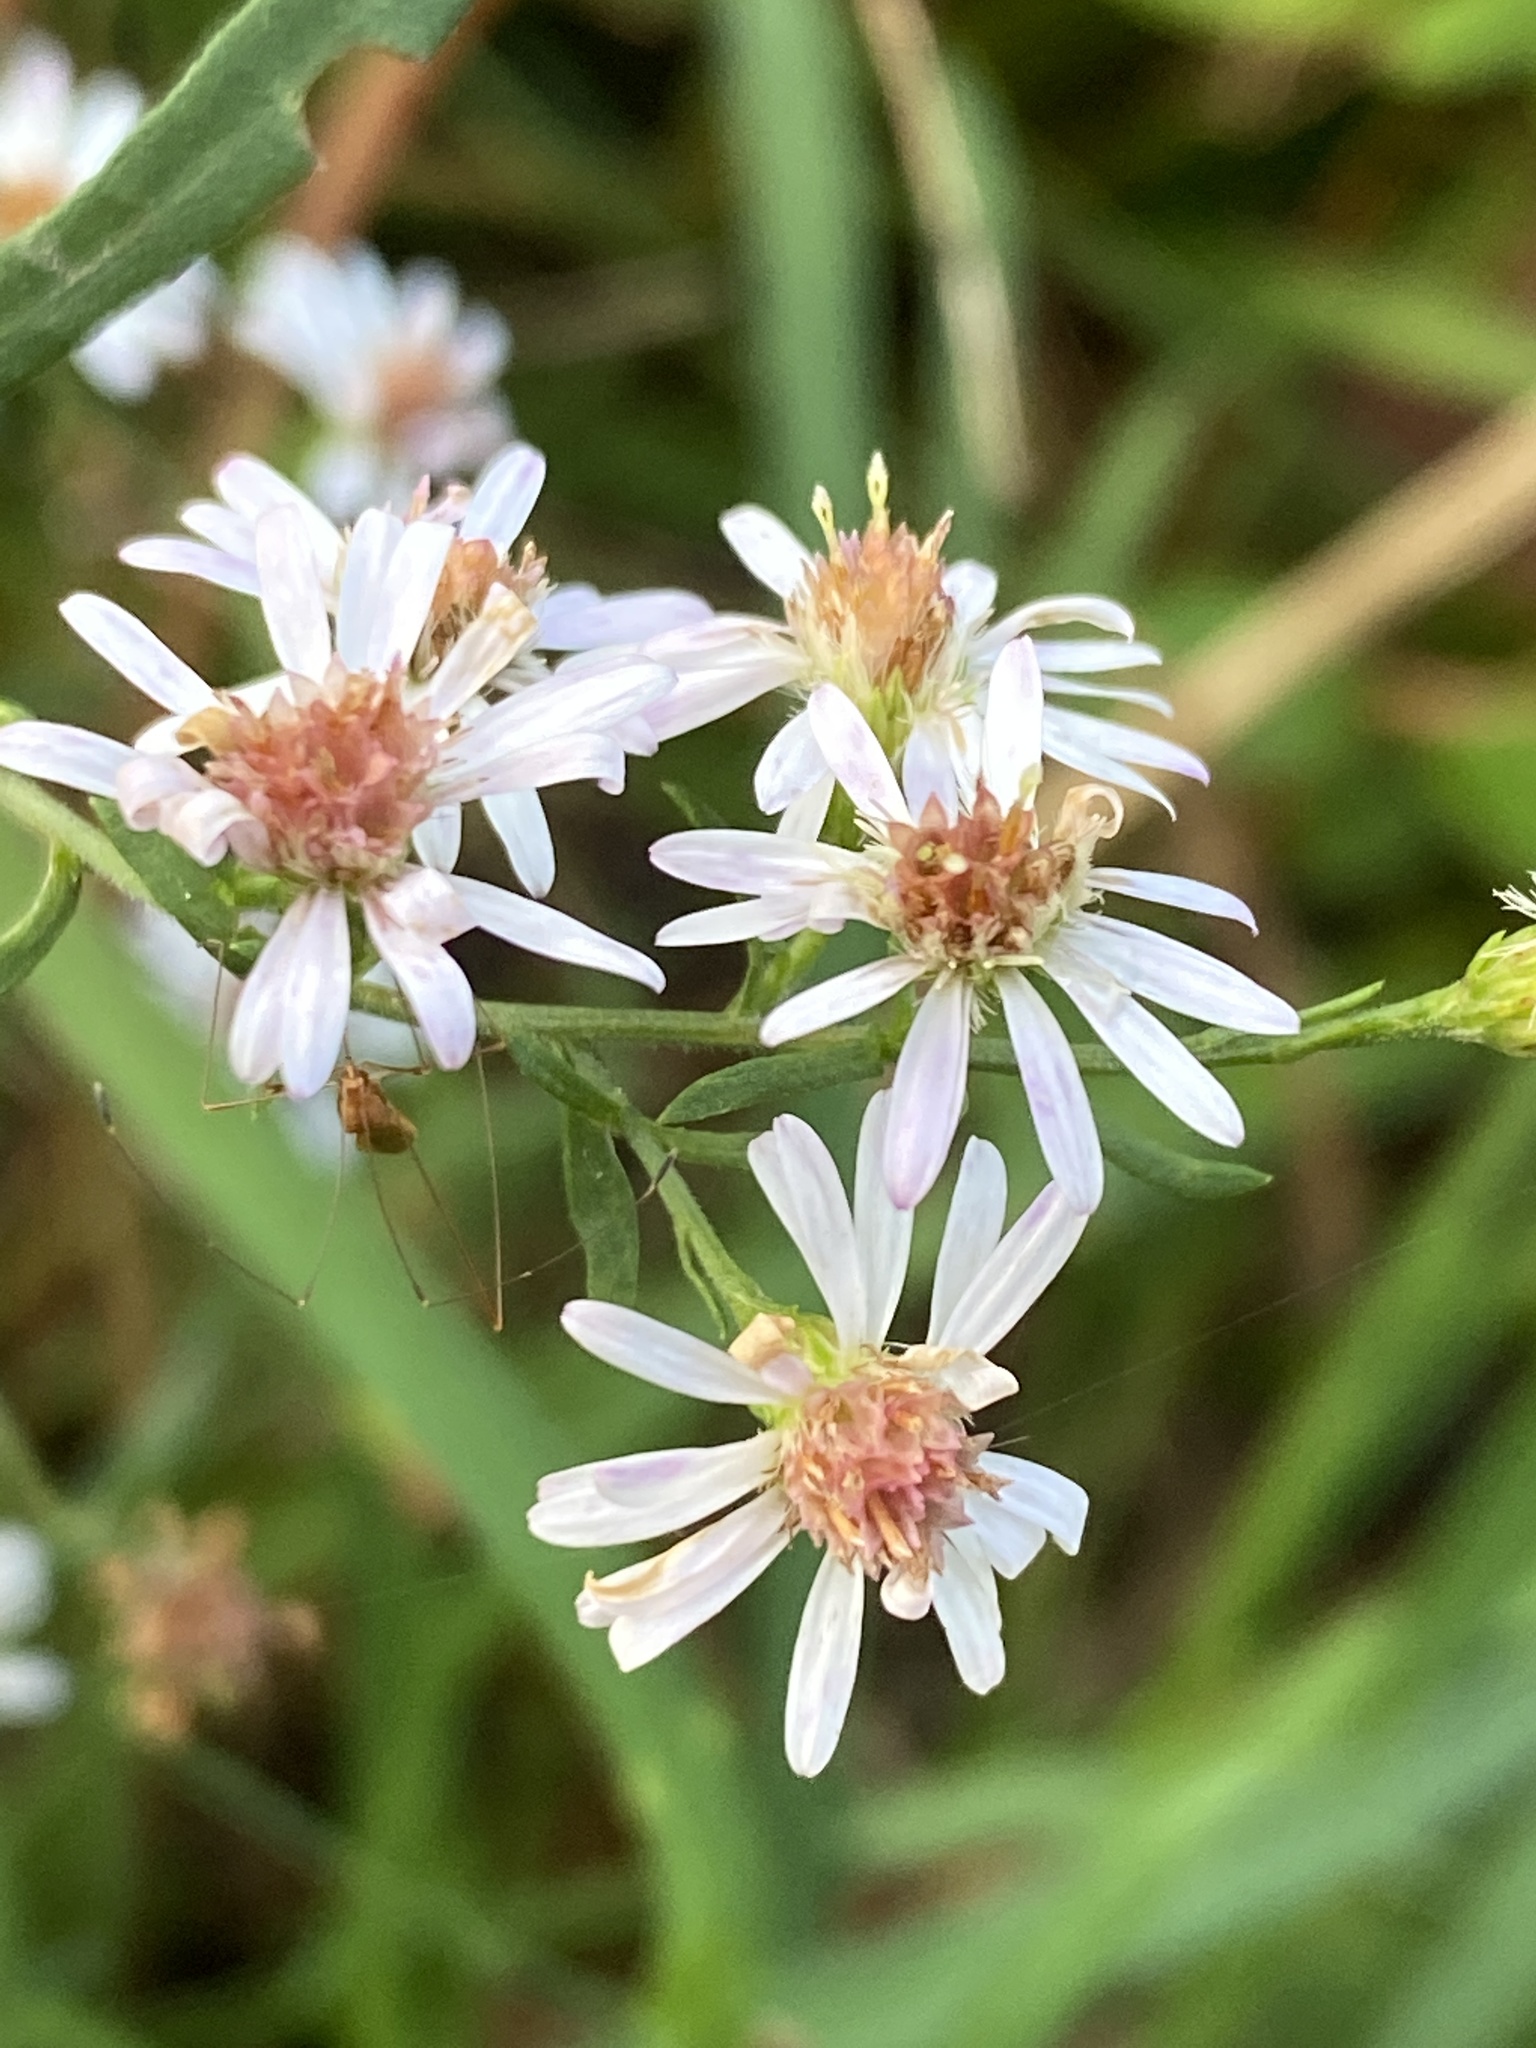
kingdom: Plantae
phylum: Tracheophyta
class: Magnoliopsida
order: Asterales
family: Asteraceae
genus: Symphyotrichum
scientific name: Symphyotrichum lateriflorum
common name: Calico aster
